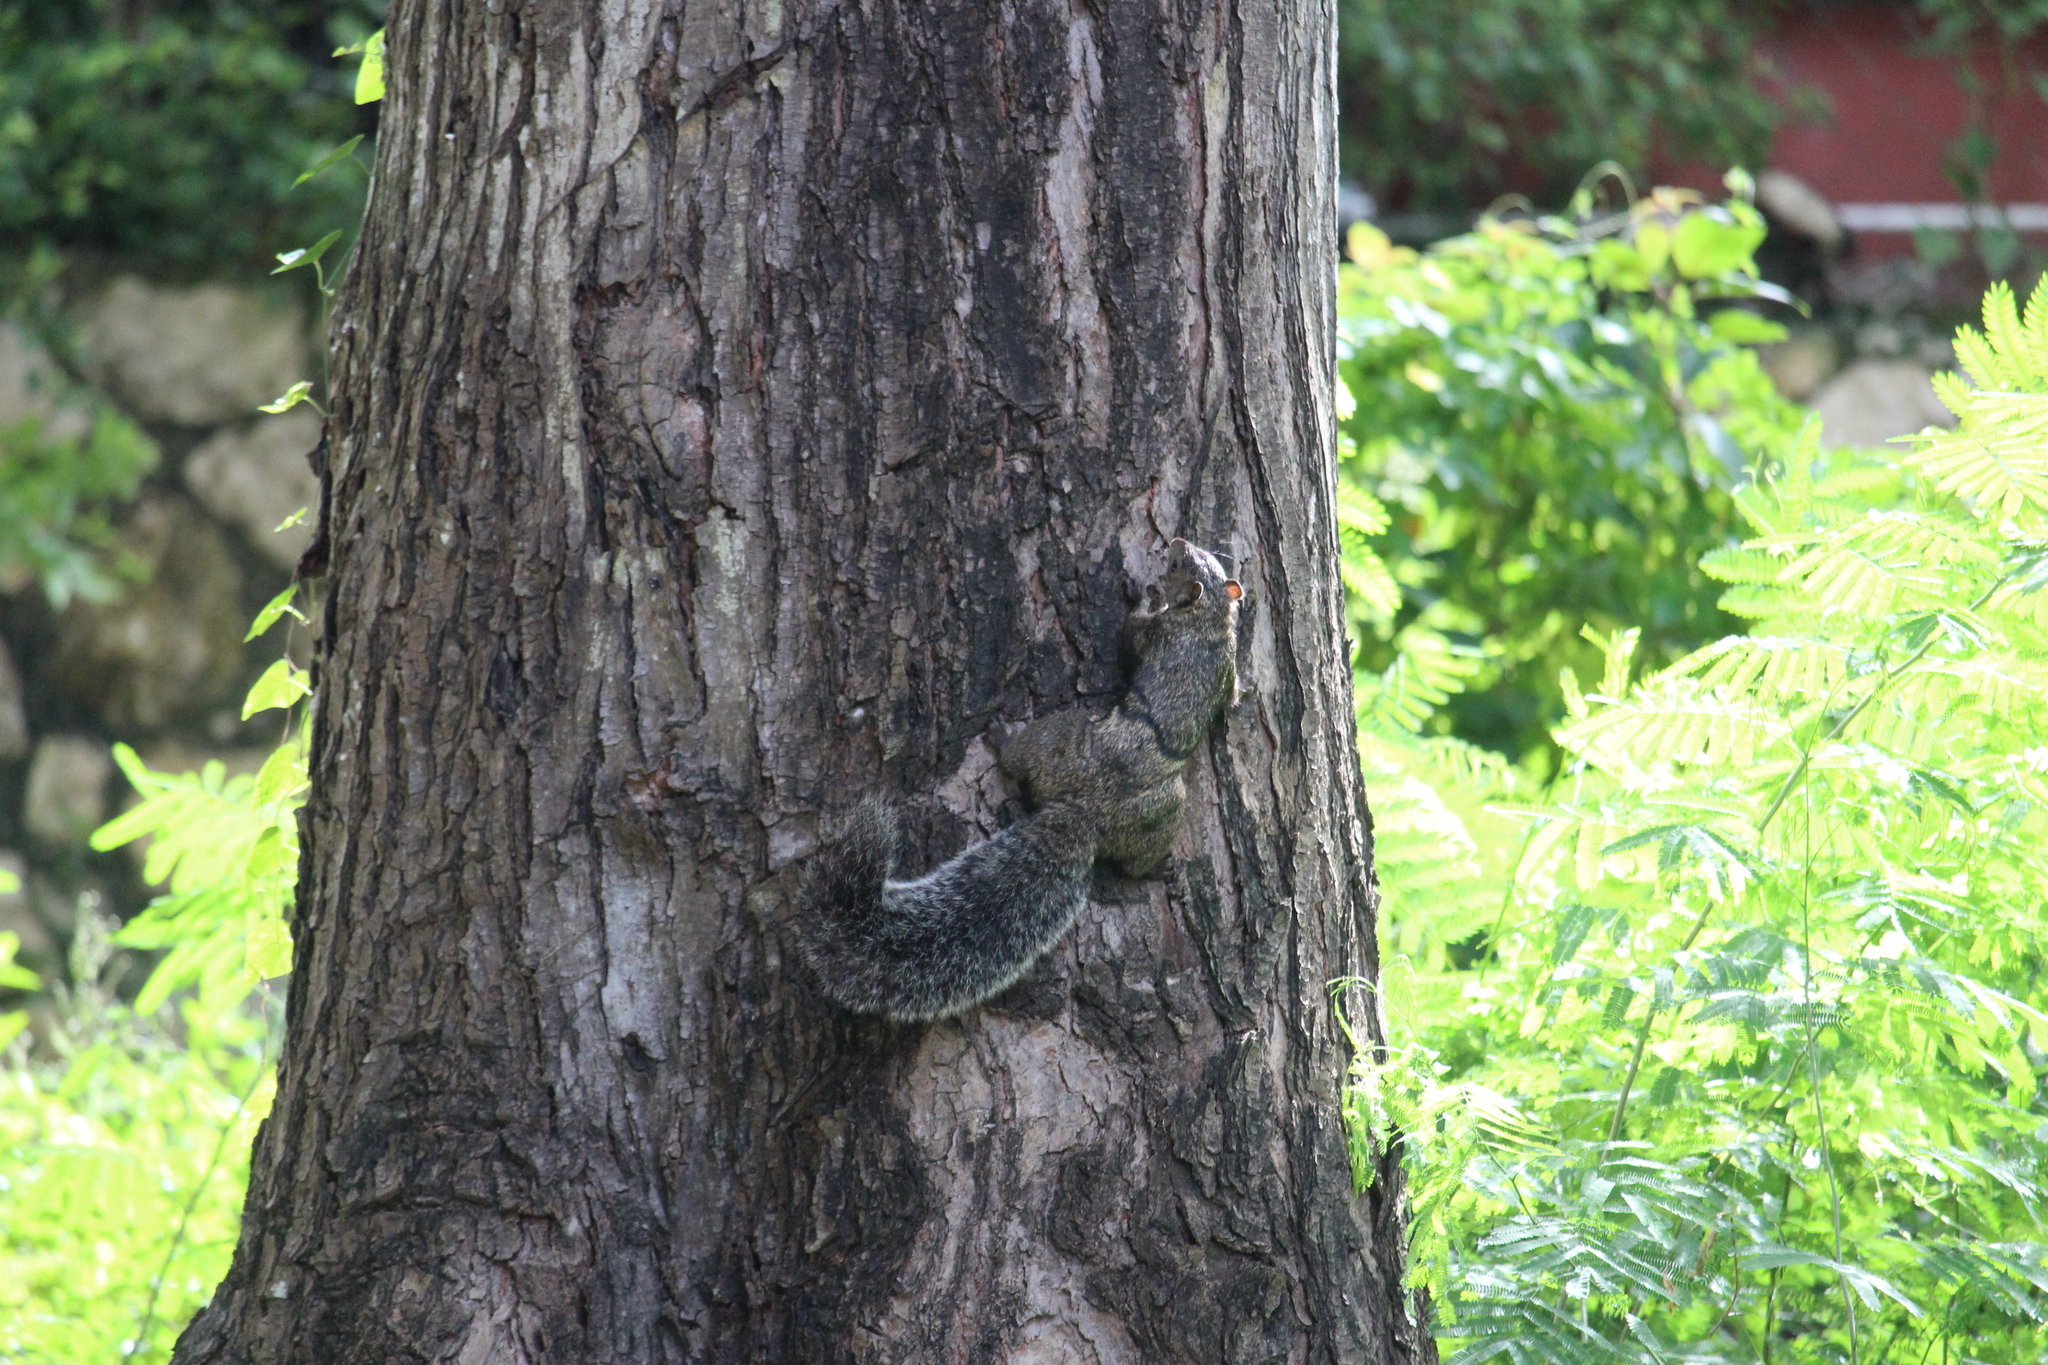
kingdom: Animalia
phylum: Chordata
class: Mammalia
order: Rodentia
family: Sciuridae
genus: Sciurus
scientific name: Sciurus yucatanensis
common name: Yucatan squirrel
